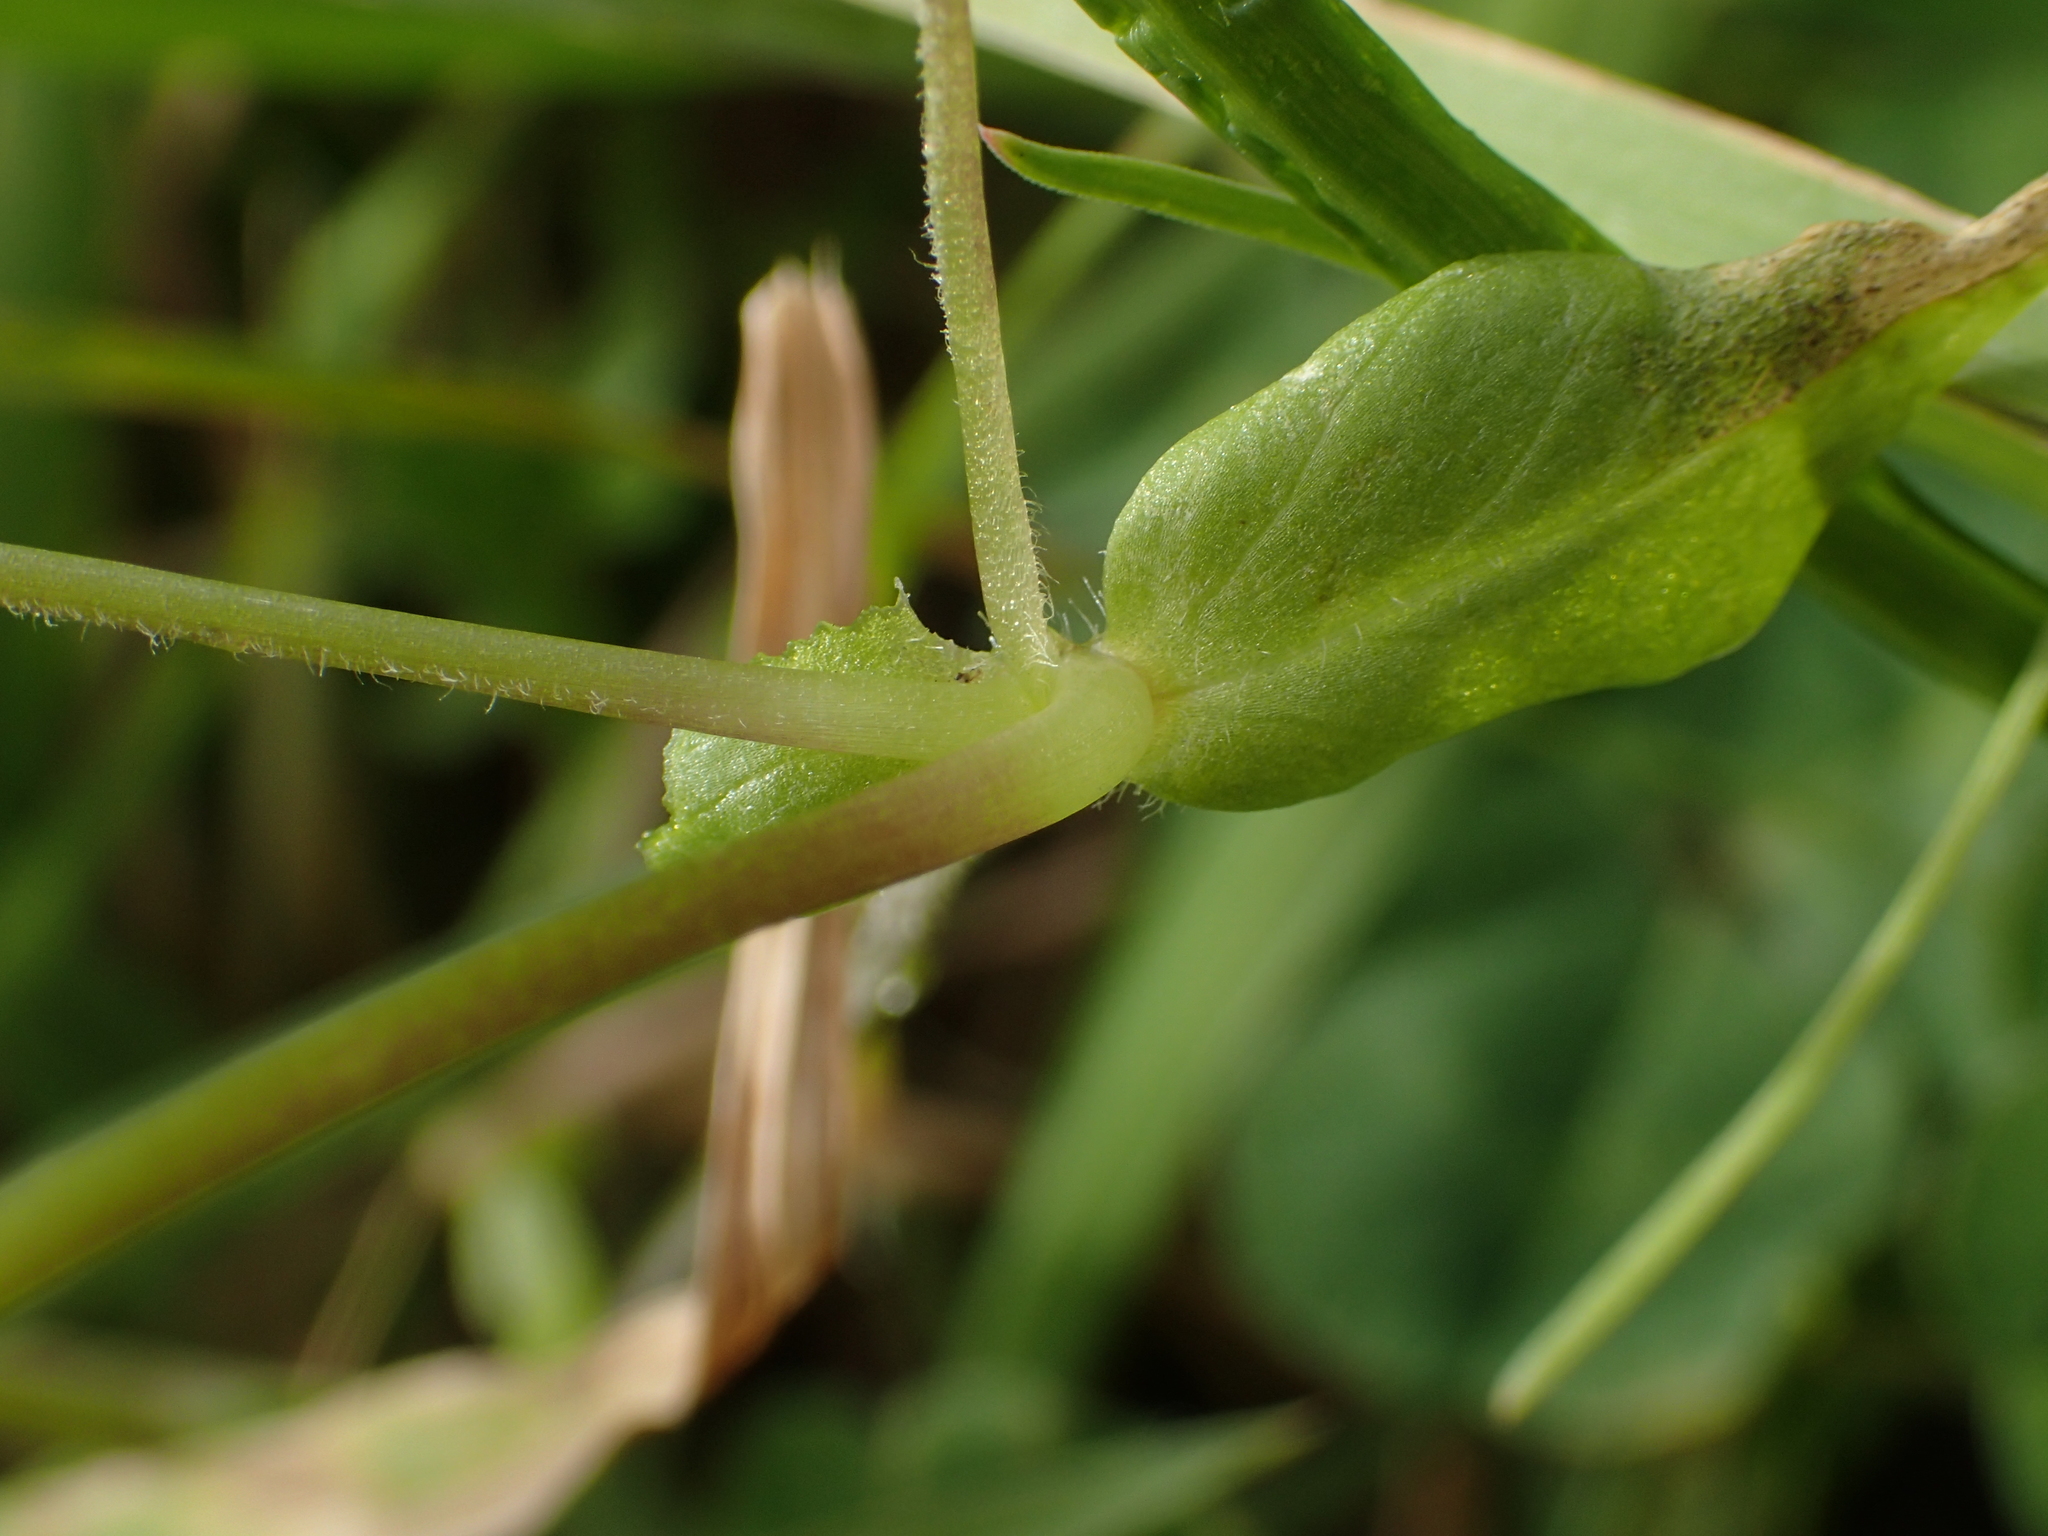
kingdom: Plantae
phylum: Tracheophyta
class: Magnoliopsida
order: Caryophyllales
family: Caryophyllaceae
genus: Stellaria
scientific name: Stellaria media
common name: Common chickweed
